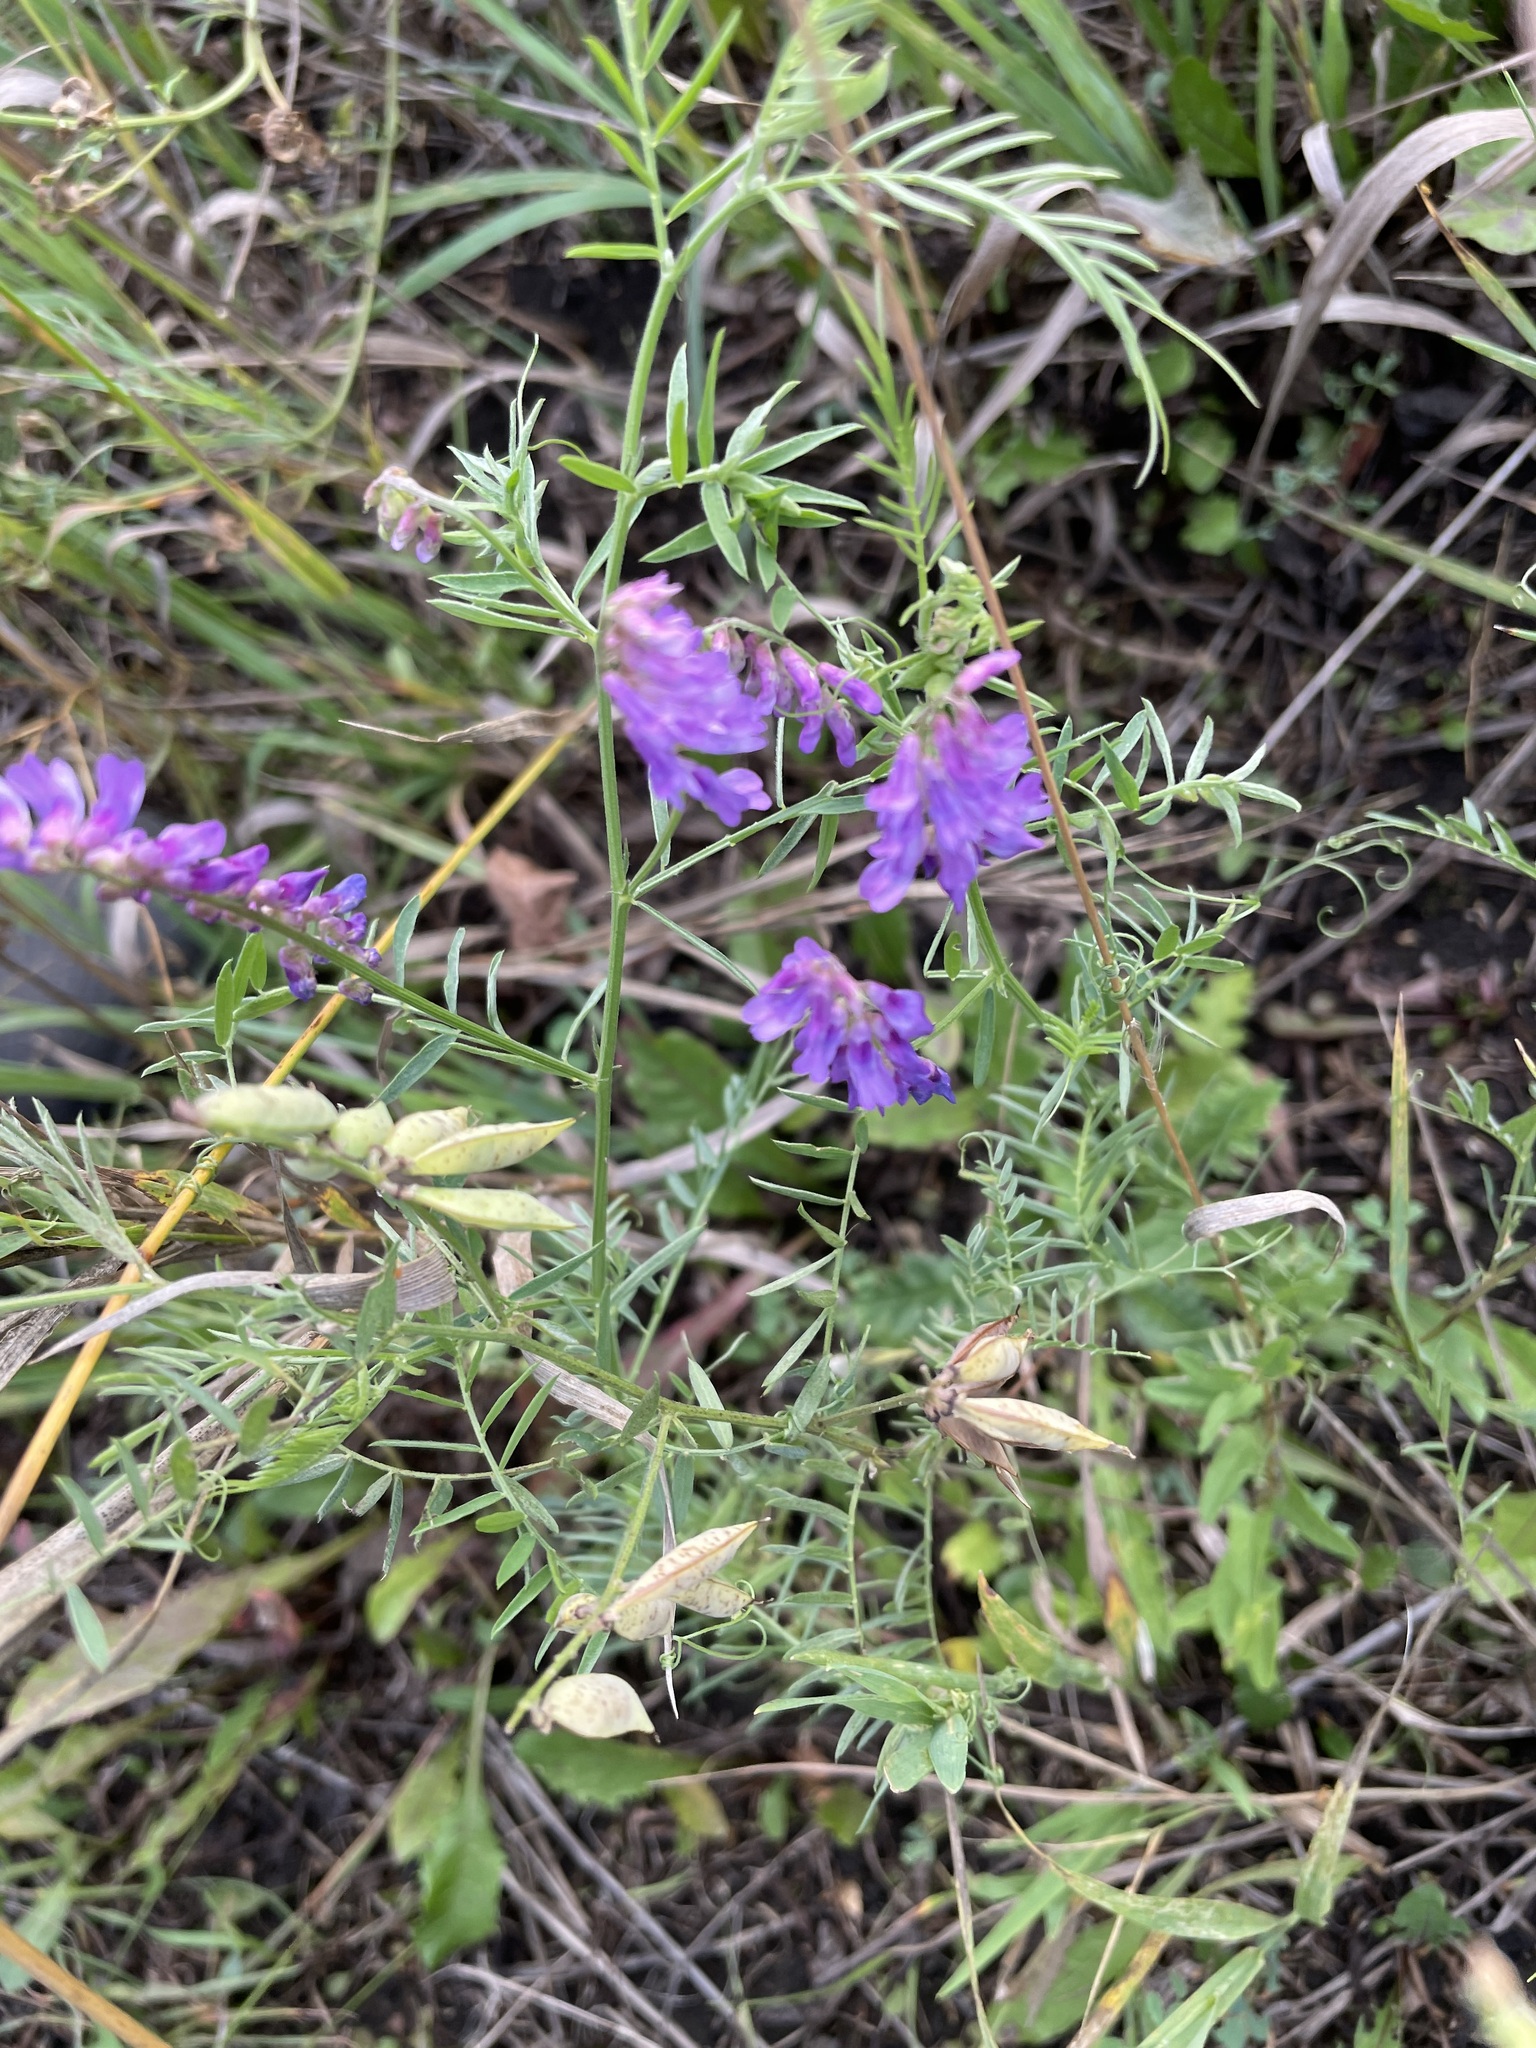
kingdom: Plantae
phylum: Tracheophyta
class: Magnoliopsida
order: Fabales
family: Fabaceae
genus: Vicia
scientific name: Vicia cracca
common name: Bird vetch
